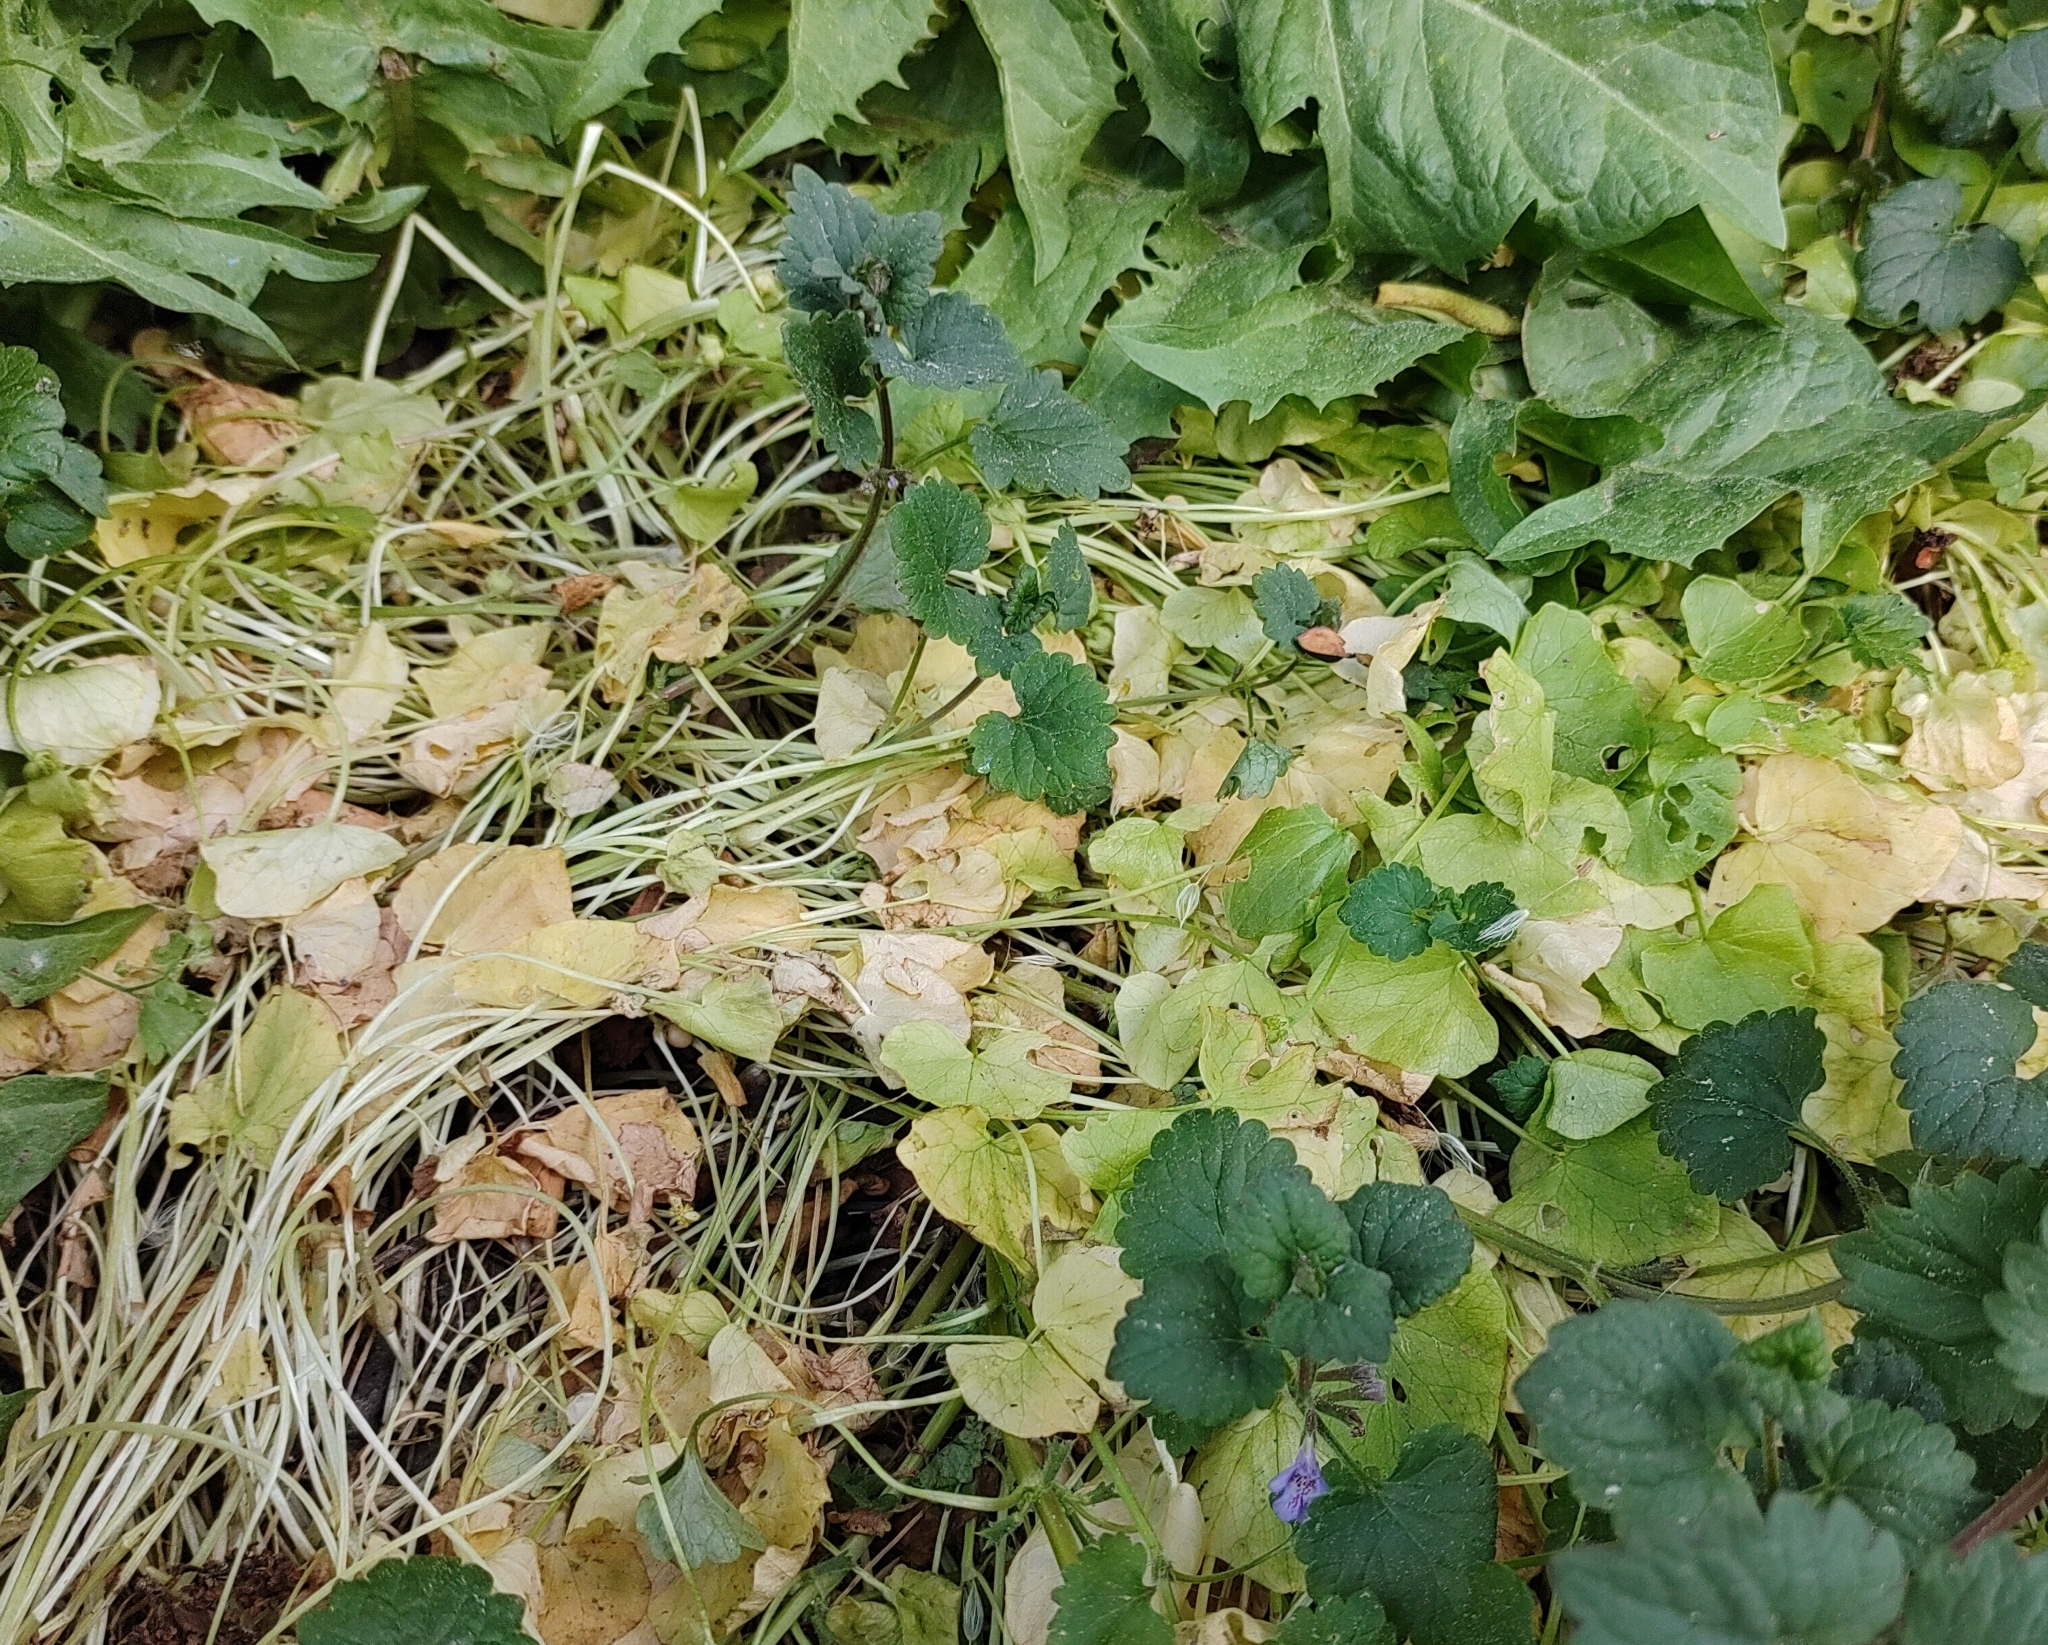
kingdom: Plantae
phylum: Tracheophyta
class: Magnoliopsida
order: Ranunculales
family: Ranunculaceae
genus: Ficaria
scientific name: Ficaria verna
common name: Lesser celandine
